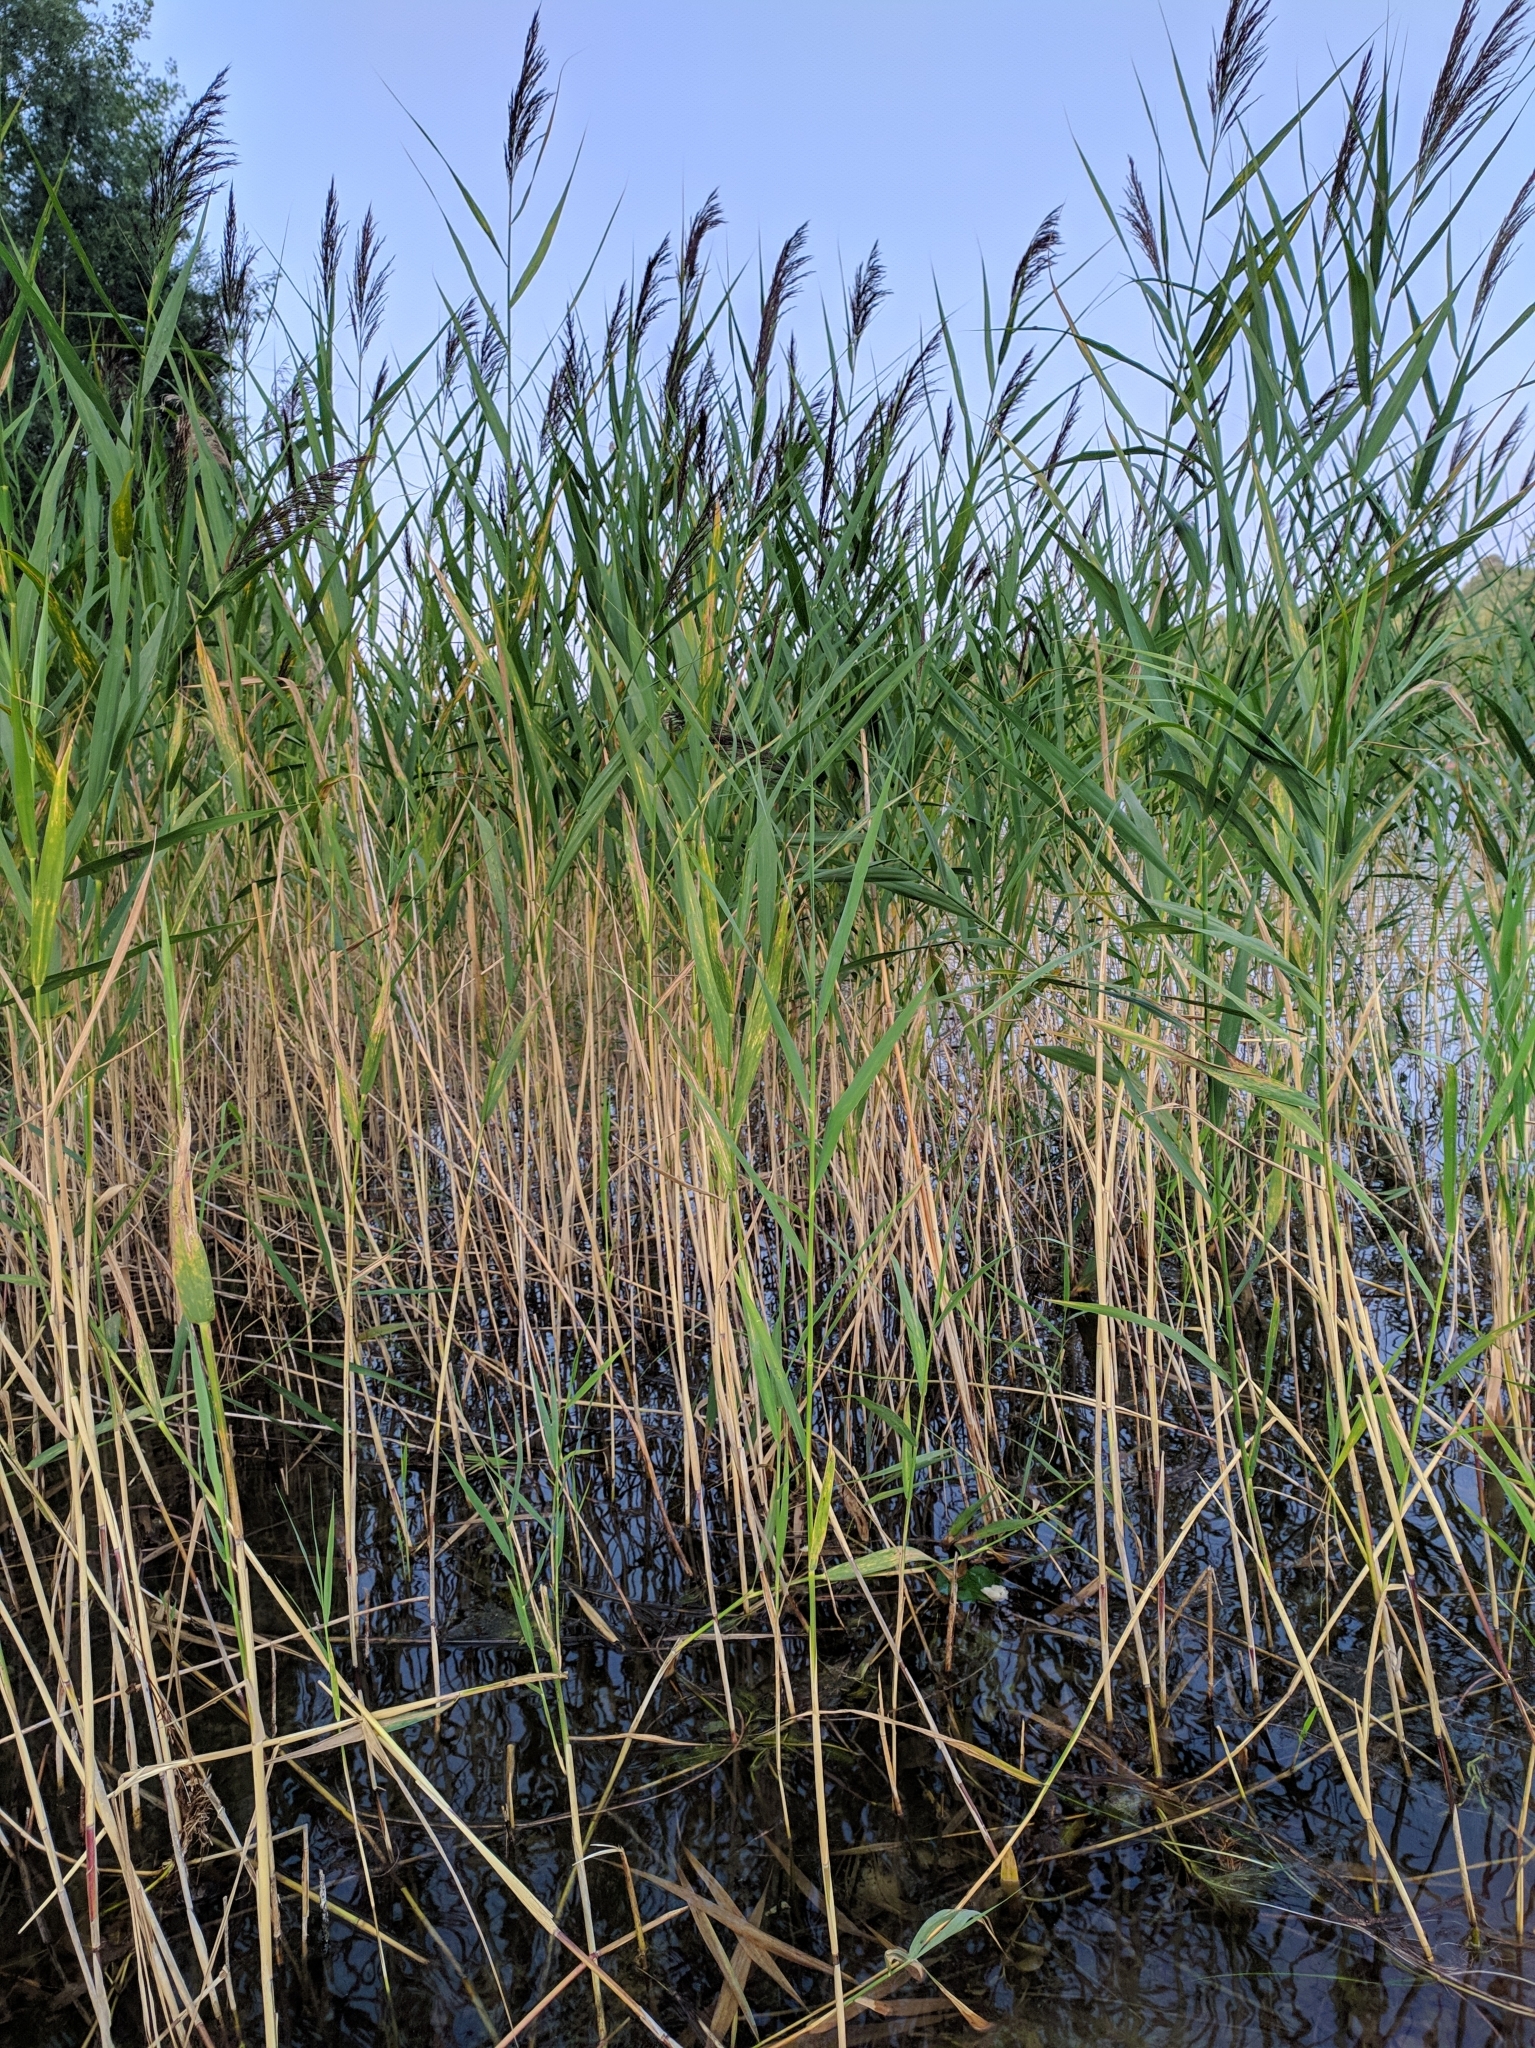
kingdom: Plantae
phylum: Tracheophyta
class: Liliopsida
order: Poales
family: Poaceae
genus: Phragmites
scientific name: Phragmites australis
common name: Common reed
